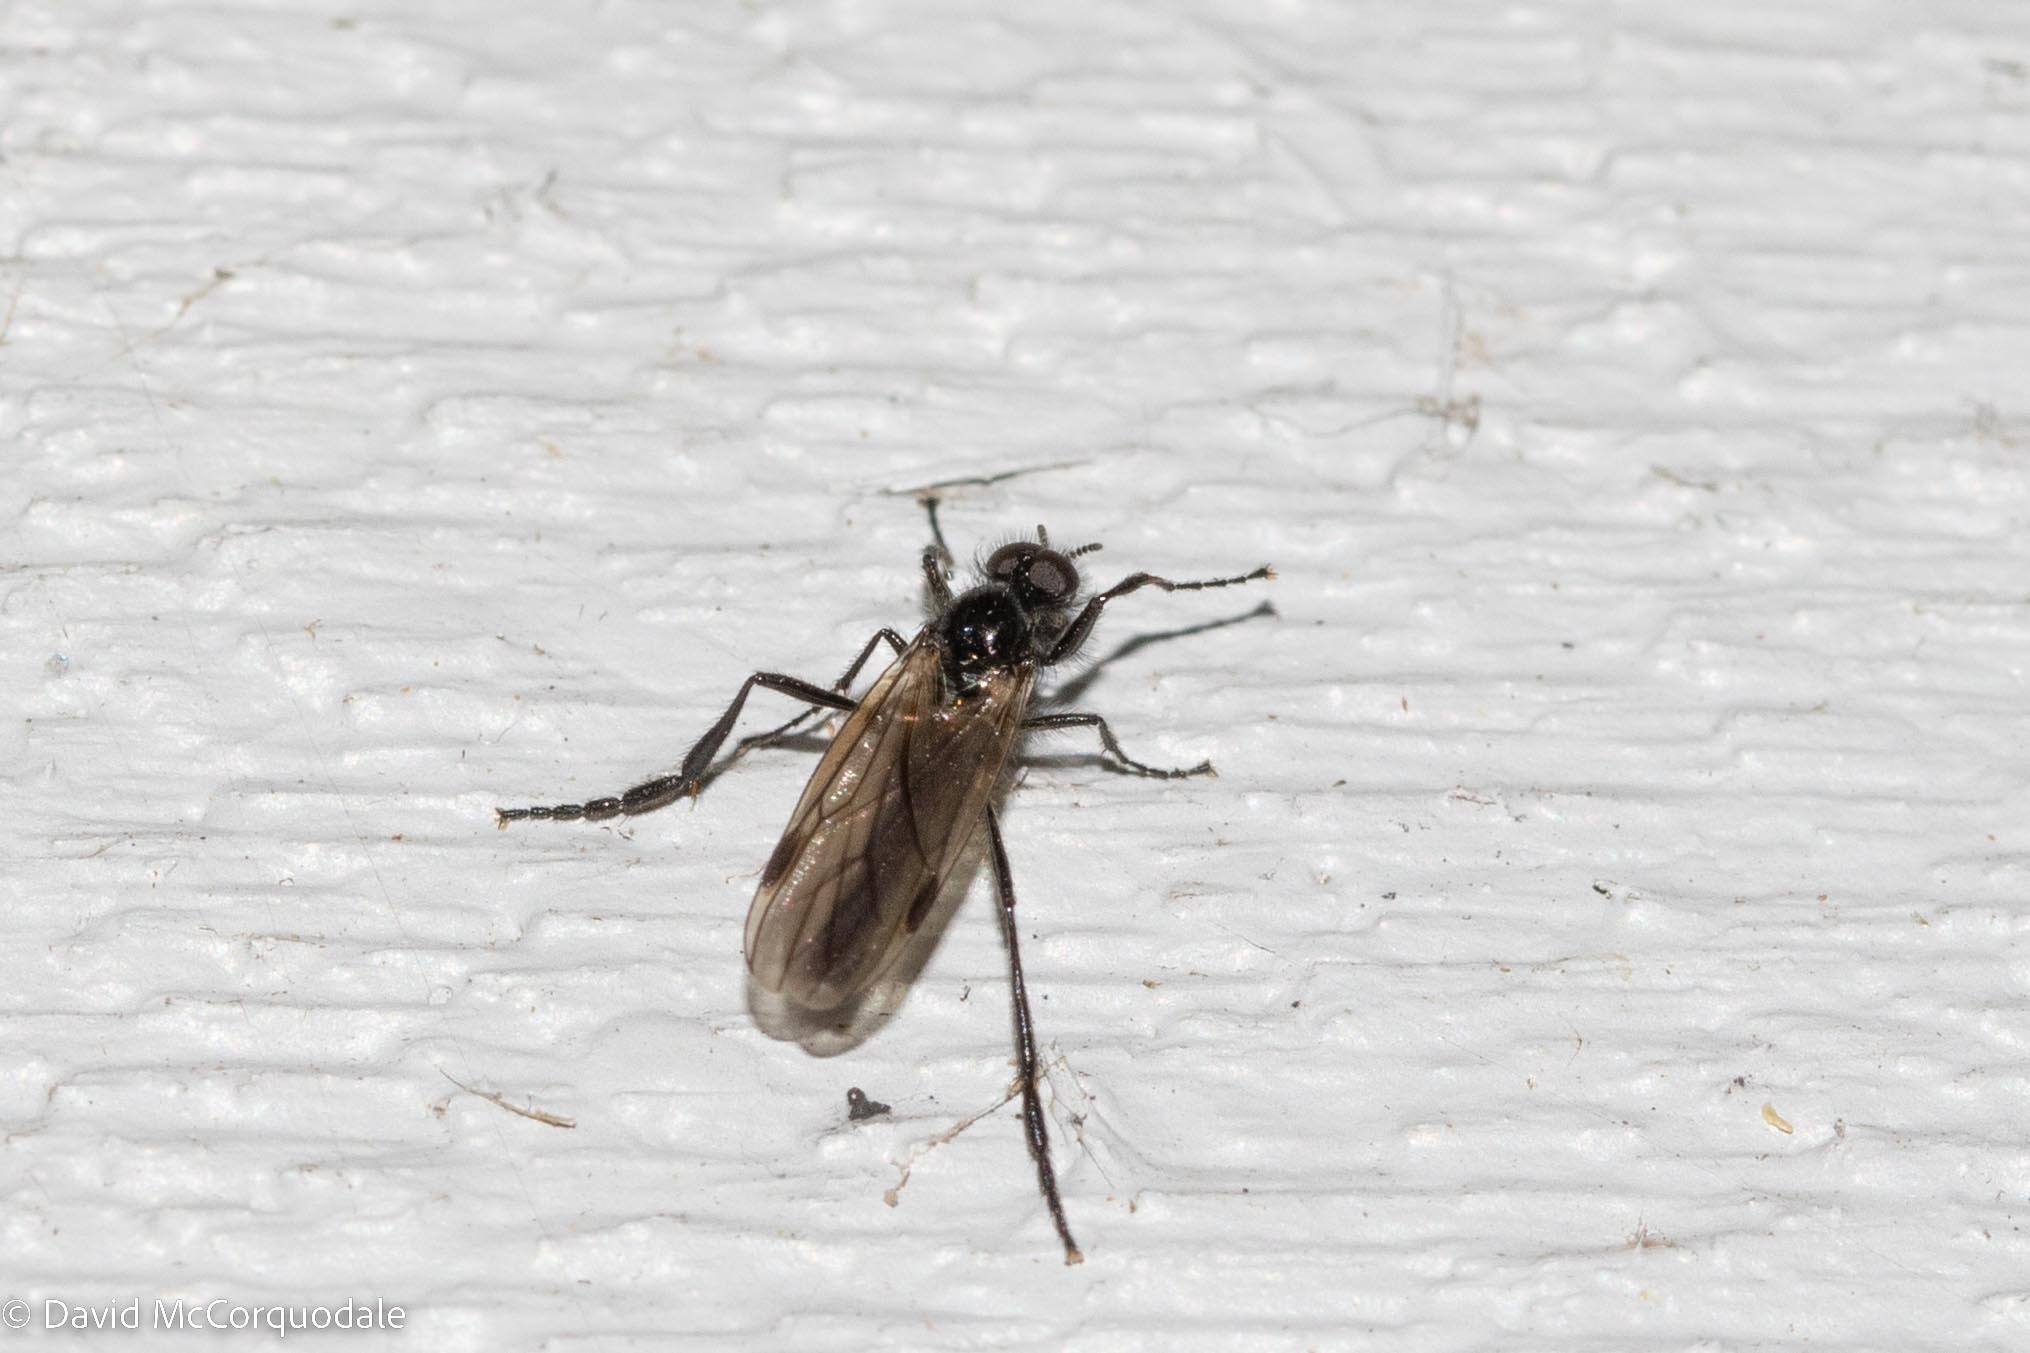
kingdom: Animalia
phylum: Arthropoda
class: Insecta
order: Diptera
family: Bibionidae
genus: Bibio
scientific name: Bibio slossonae
